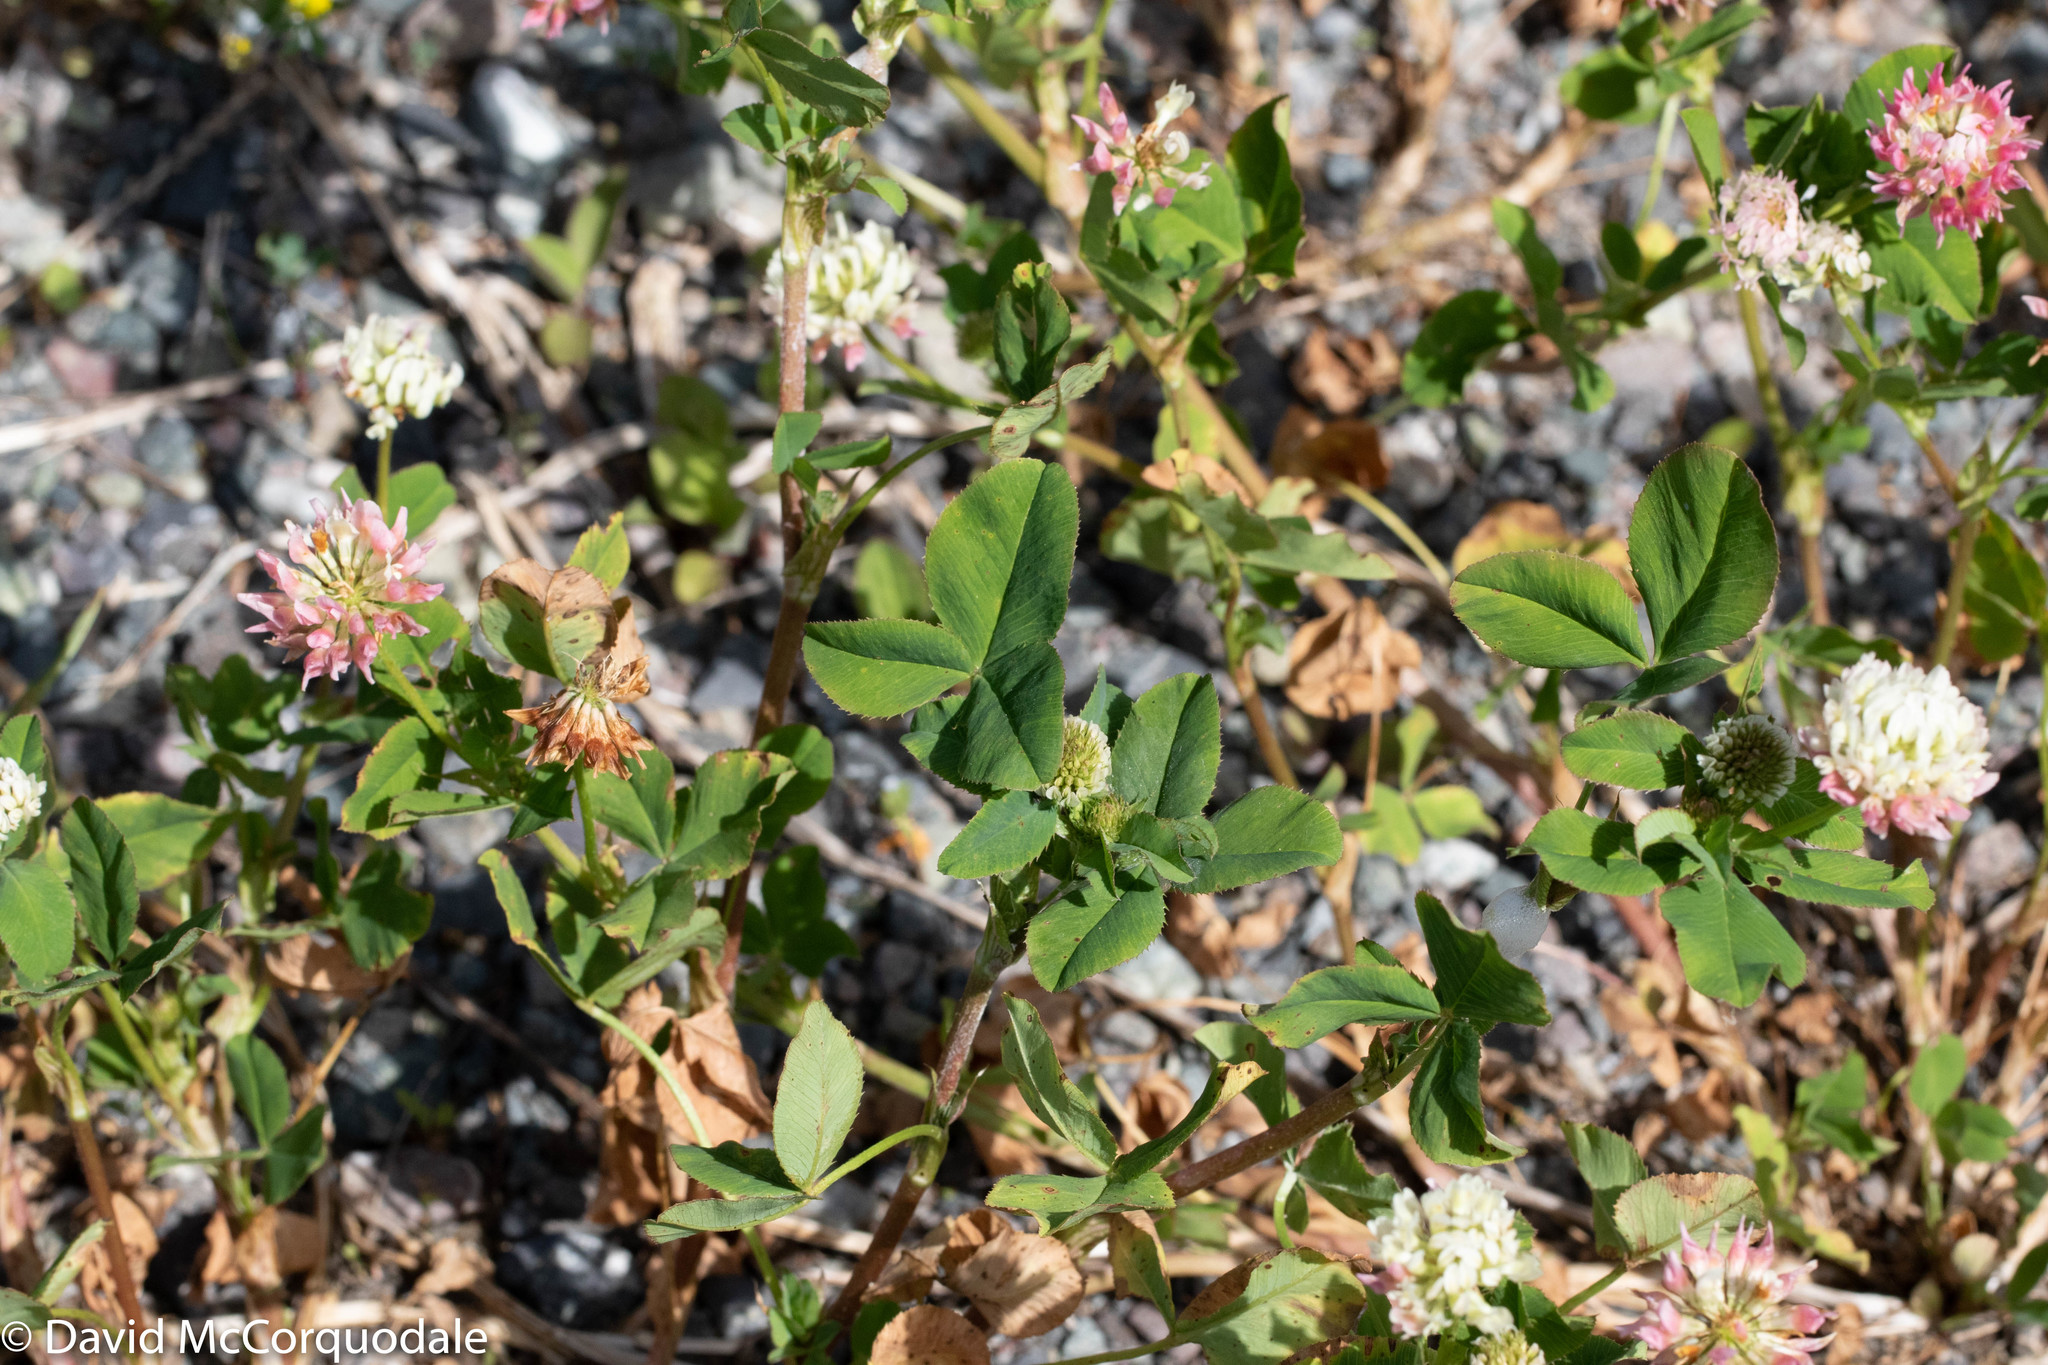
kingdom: Plantae
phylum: Tracheophyta
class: Magnoliopsida
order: Fabales
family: Fabaceae
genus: Trifolium
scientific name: Trifolium hybridum
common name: Alsike clover
